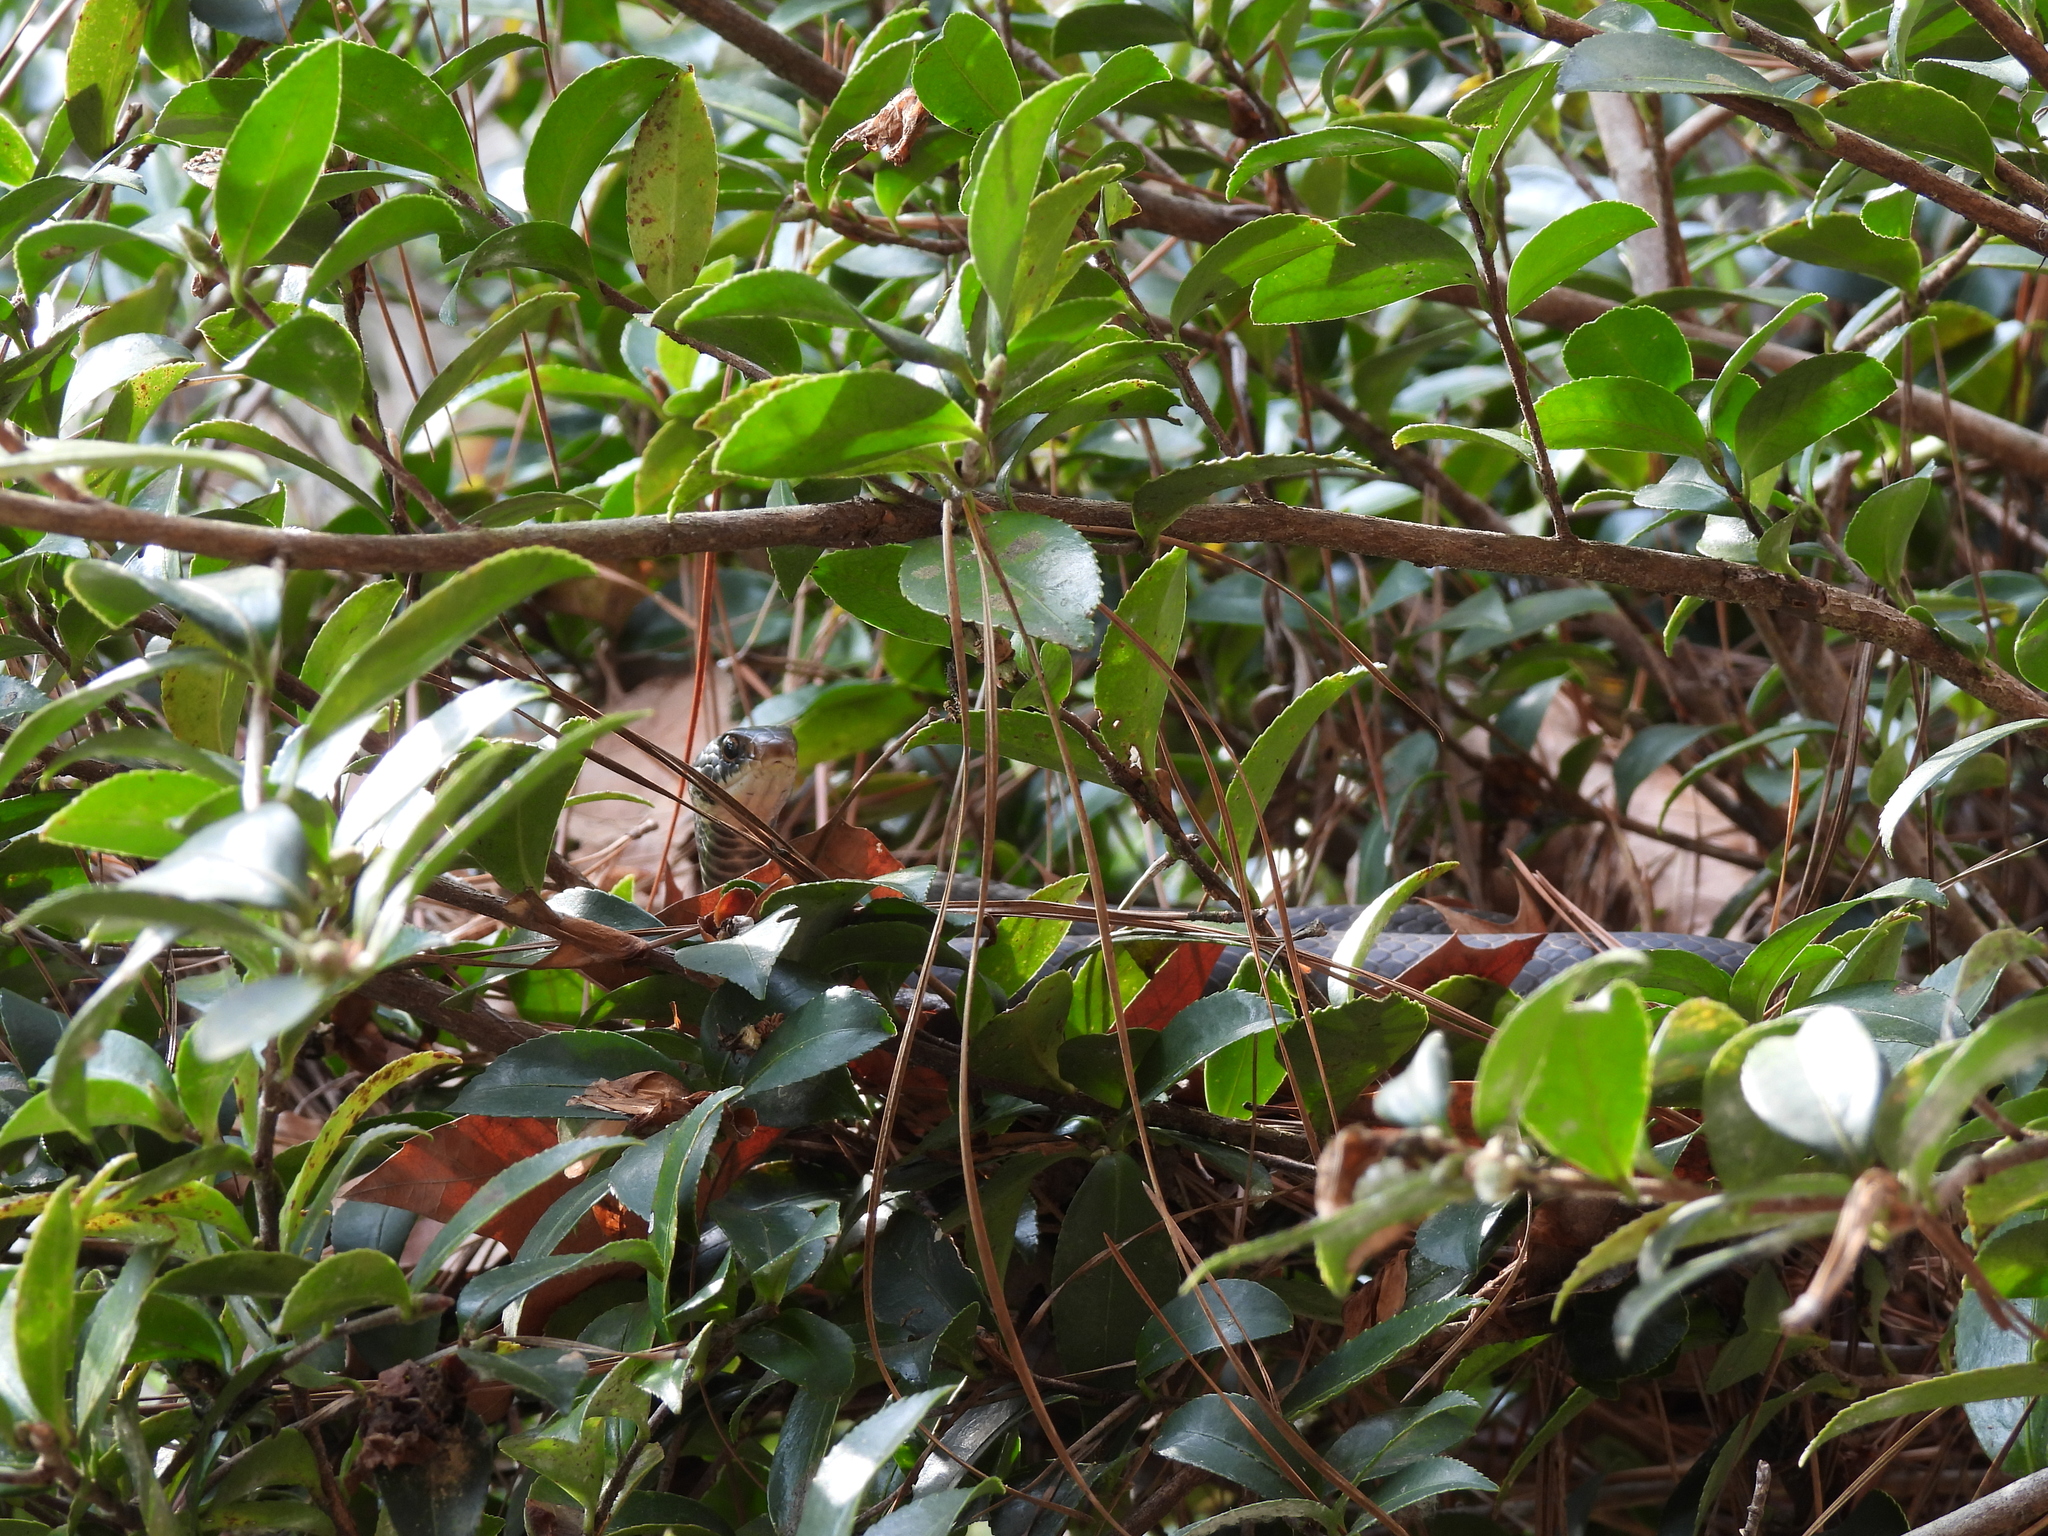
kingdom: Animalia
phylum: Chordata
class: Squamata
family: Colubridae
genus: Coluber
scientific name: Coluber constrictor
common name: Eastern racer
